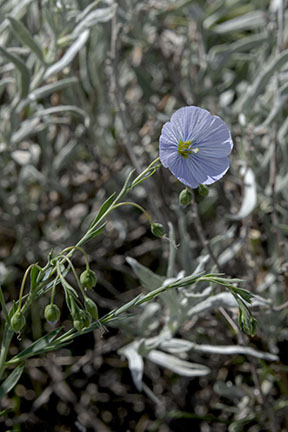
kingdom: Plantae
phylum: Tracheophyta
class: Magnoliopsida
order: Malpighiales
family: Linaceae
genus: Linum
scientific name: Linum lewisii
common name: Prairie flax
